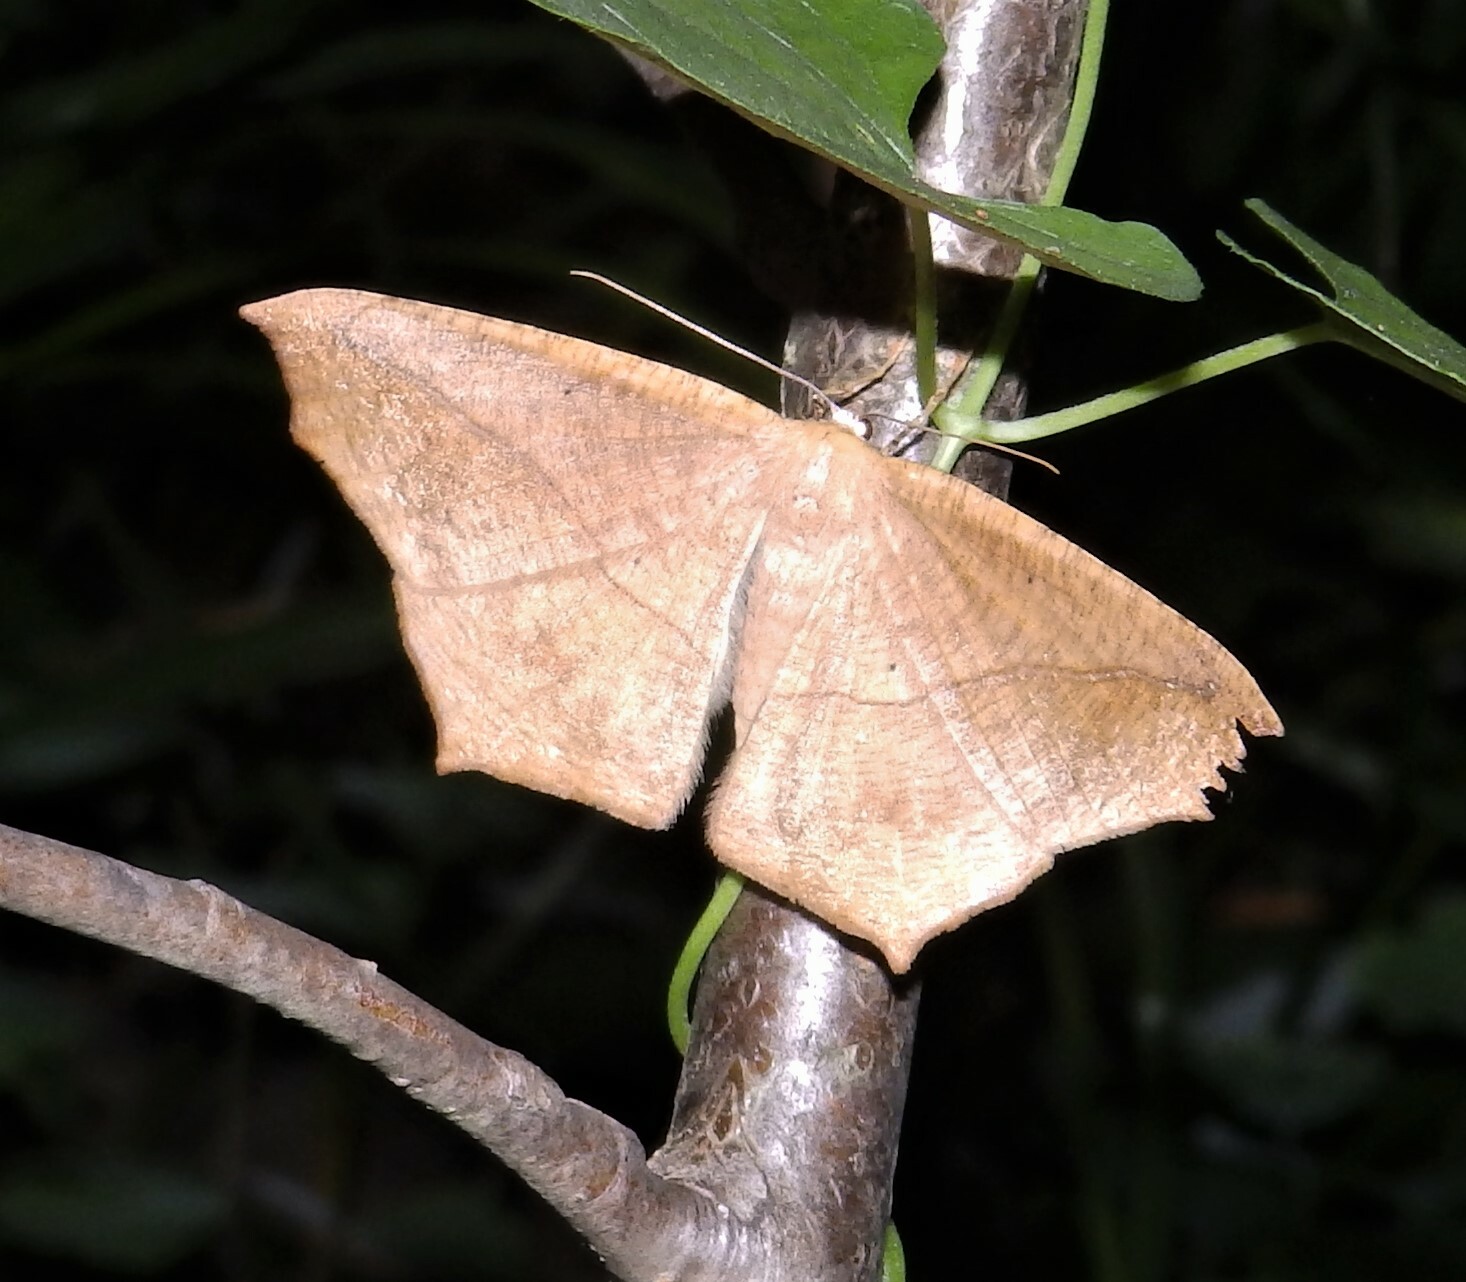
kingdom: Animalia
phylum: Arthropoda
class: Insecta
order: Lepidoptera
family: Geometridae
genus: Prochoerodes
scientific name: Prochoerodes lineola
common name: Large maple spanworm
